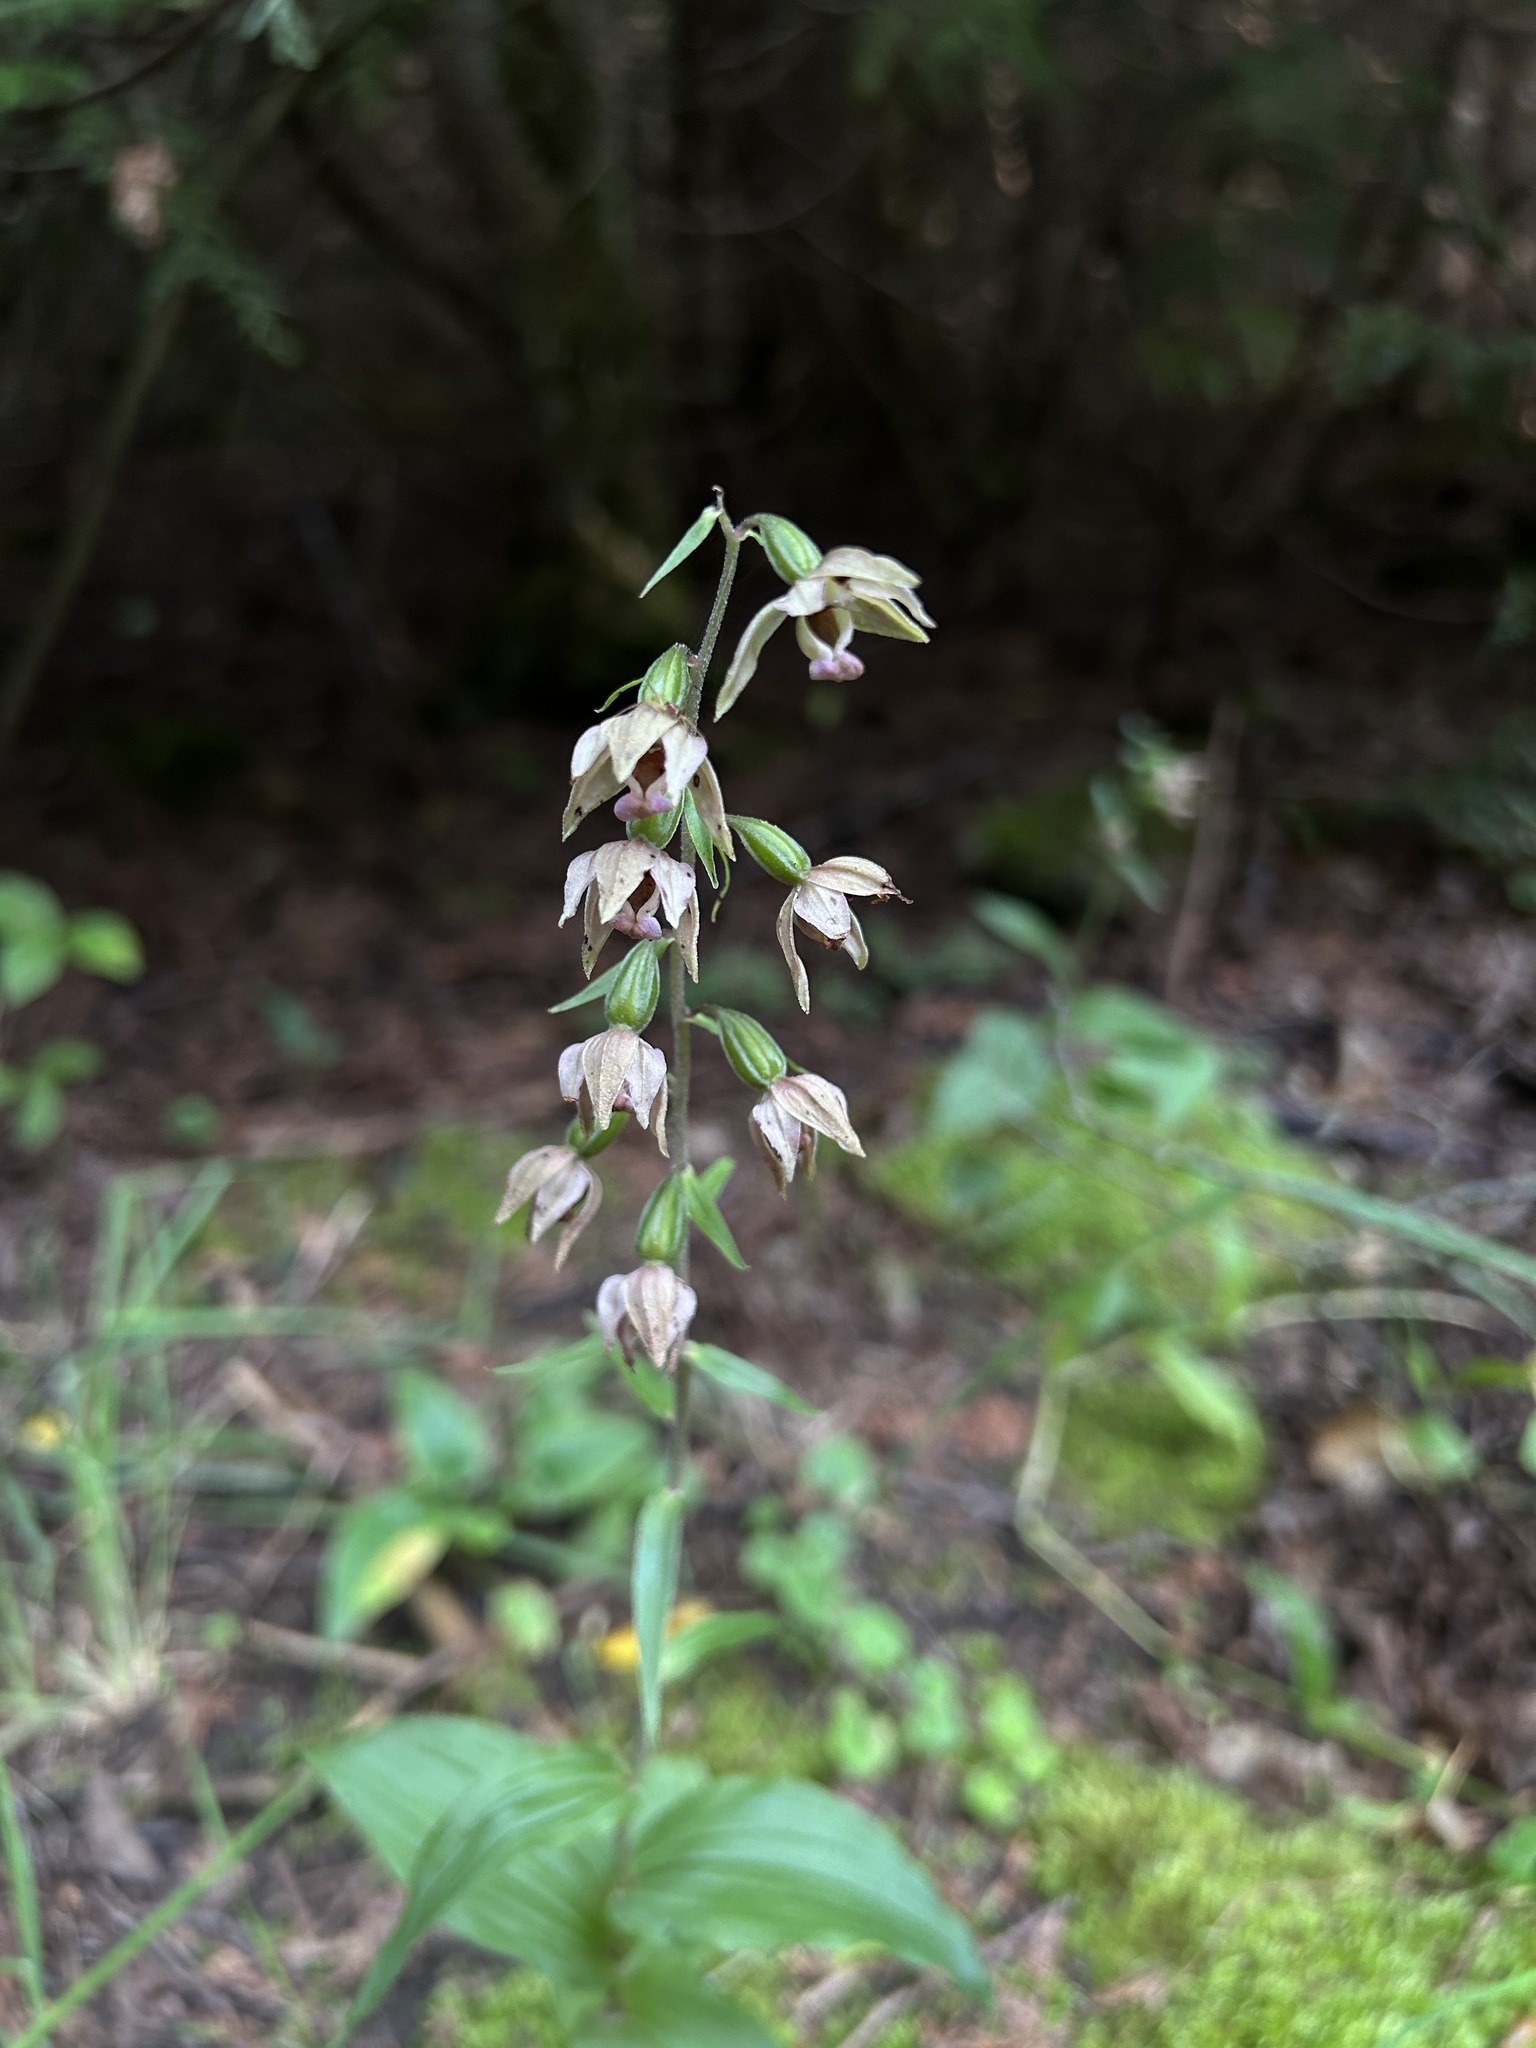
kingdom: Plantae
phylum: Tracheophyta
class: Liliopsida
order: Asparagales
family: Orchidaceae
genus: Epipactis
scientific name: Epipactis helleborine
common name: Broad-leaved helleborine
